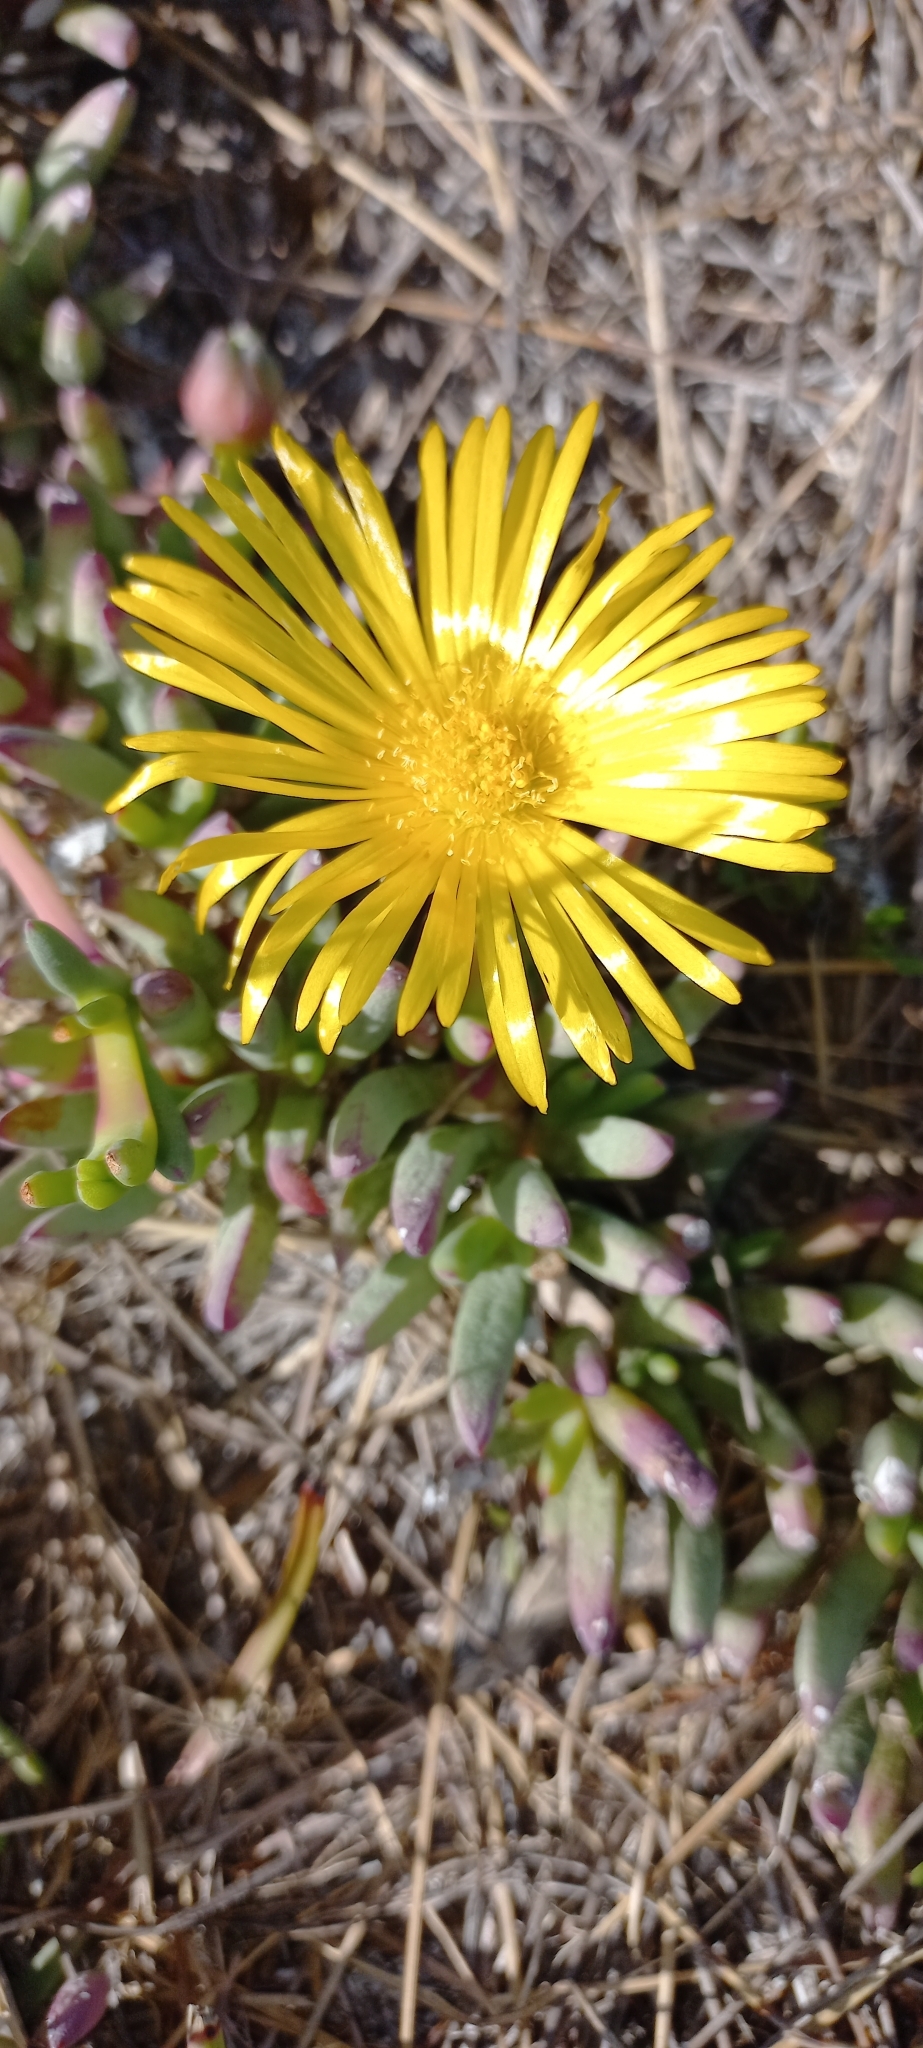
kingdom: Plantae
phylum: Tracheophyta
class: Magnoliopsida
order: Caryophyllales
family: Aizoaceae
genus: Jordaaniella
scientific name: Jordaaniella dubia
